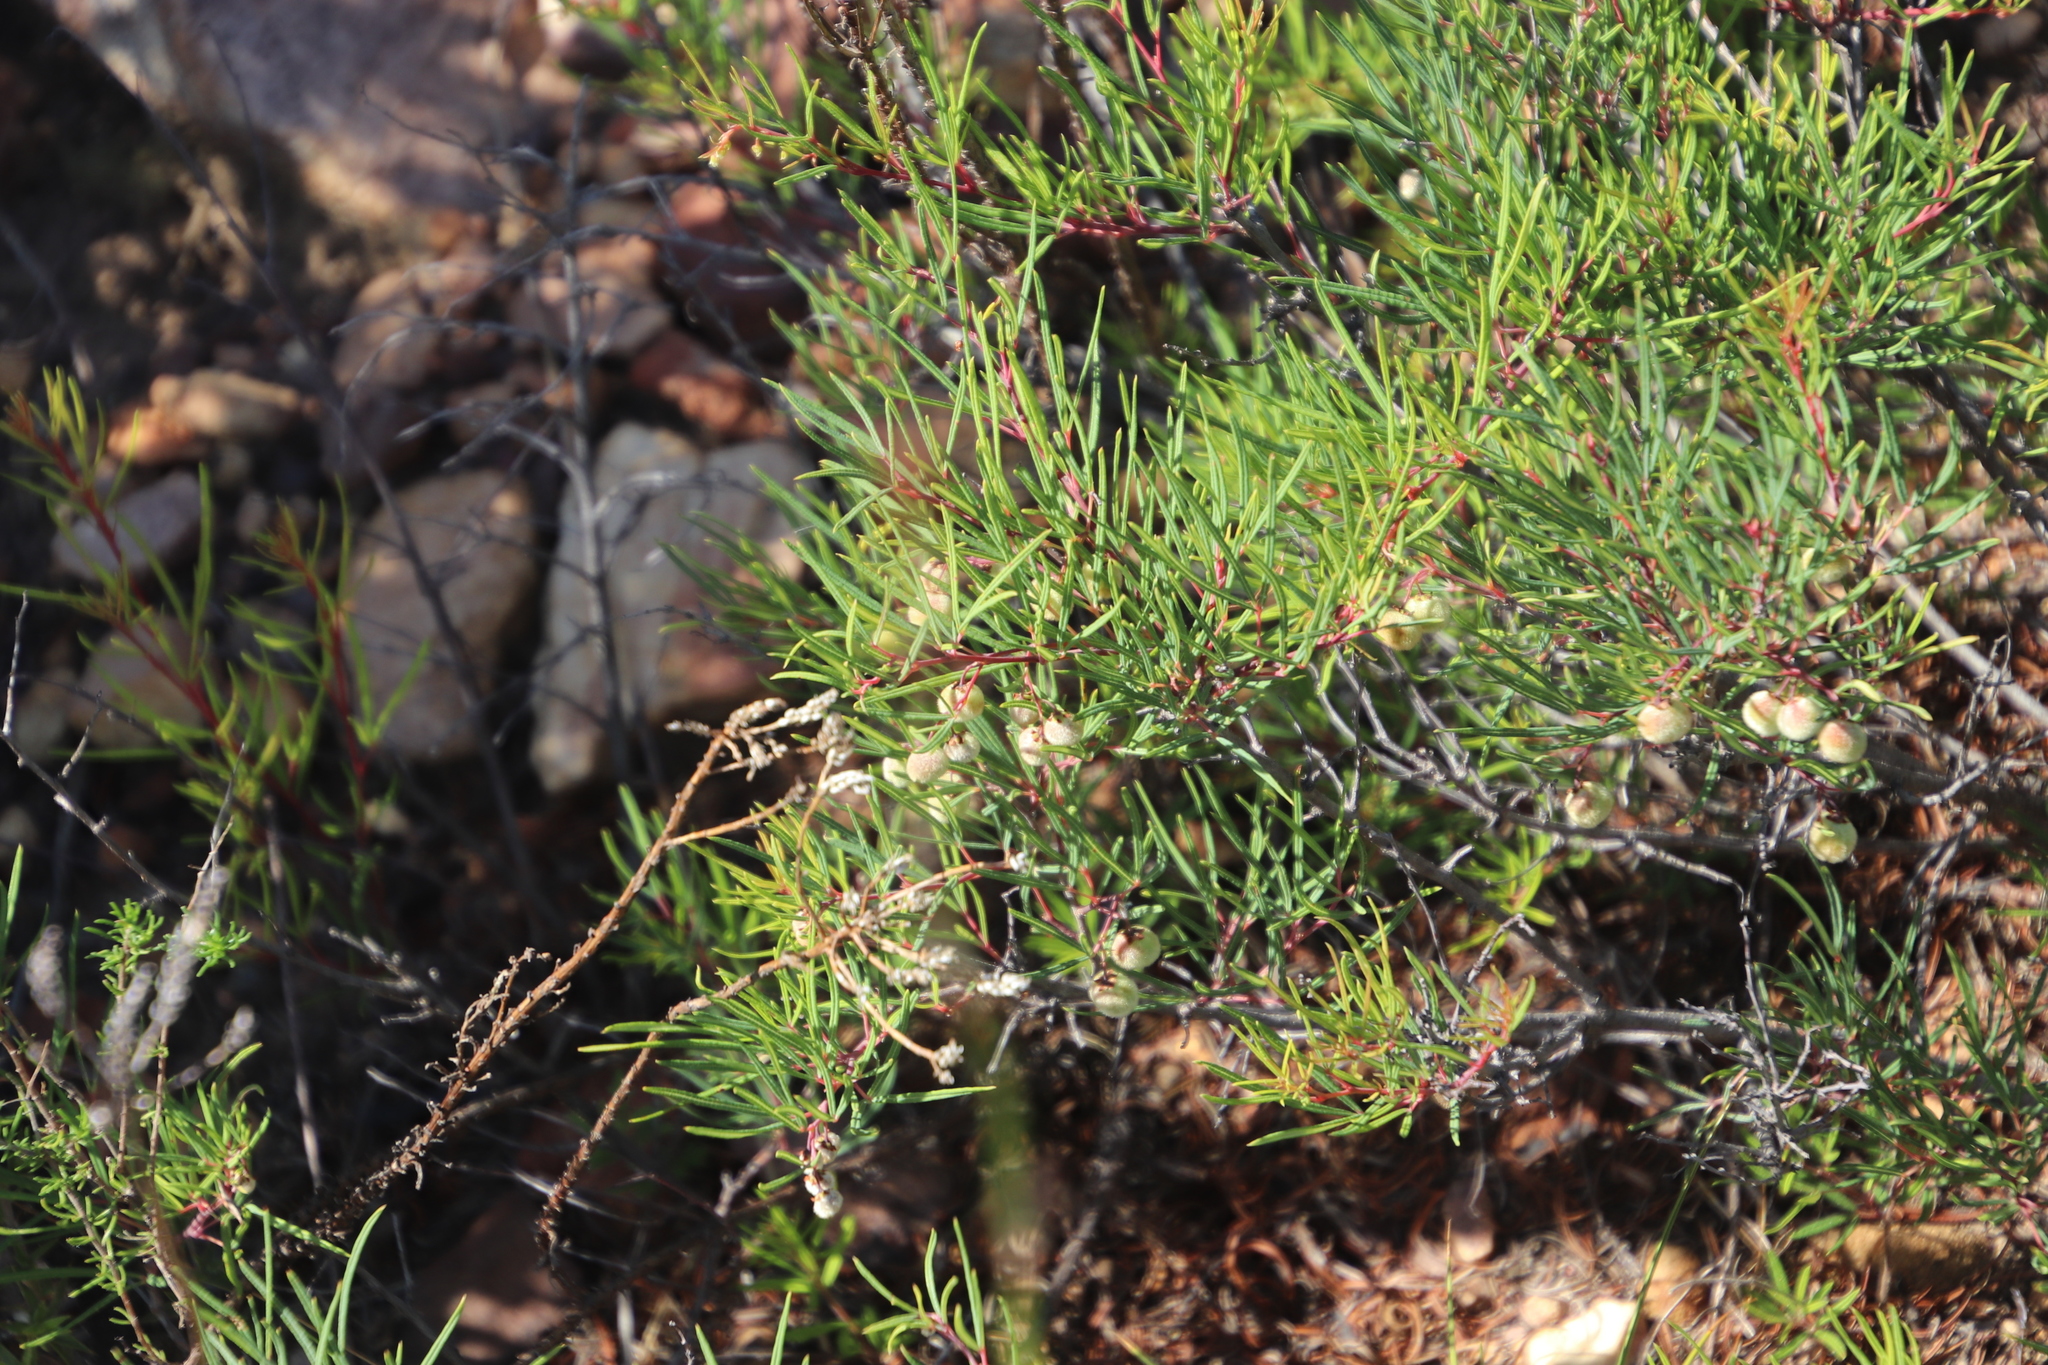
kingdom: Plantae
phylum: Tracheophyta
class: Magnoliopsida
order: Sapindales
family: Anacardiaceae
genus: Searsia
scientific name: Searsia rosmarinifolia
